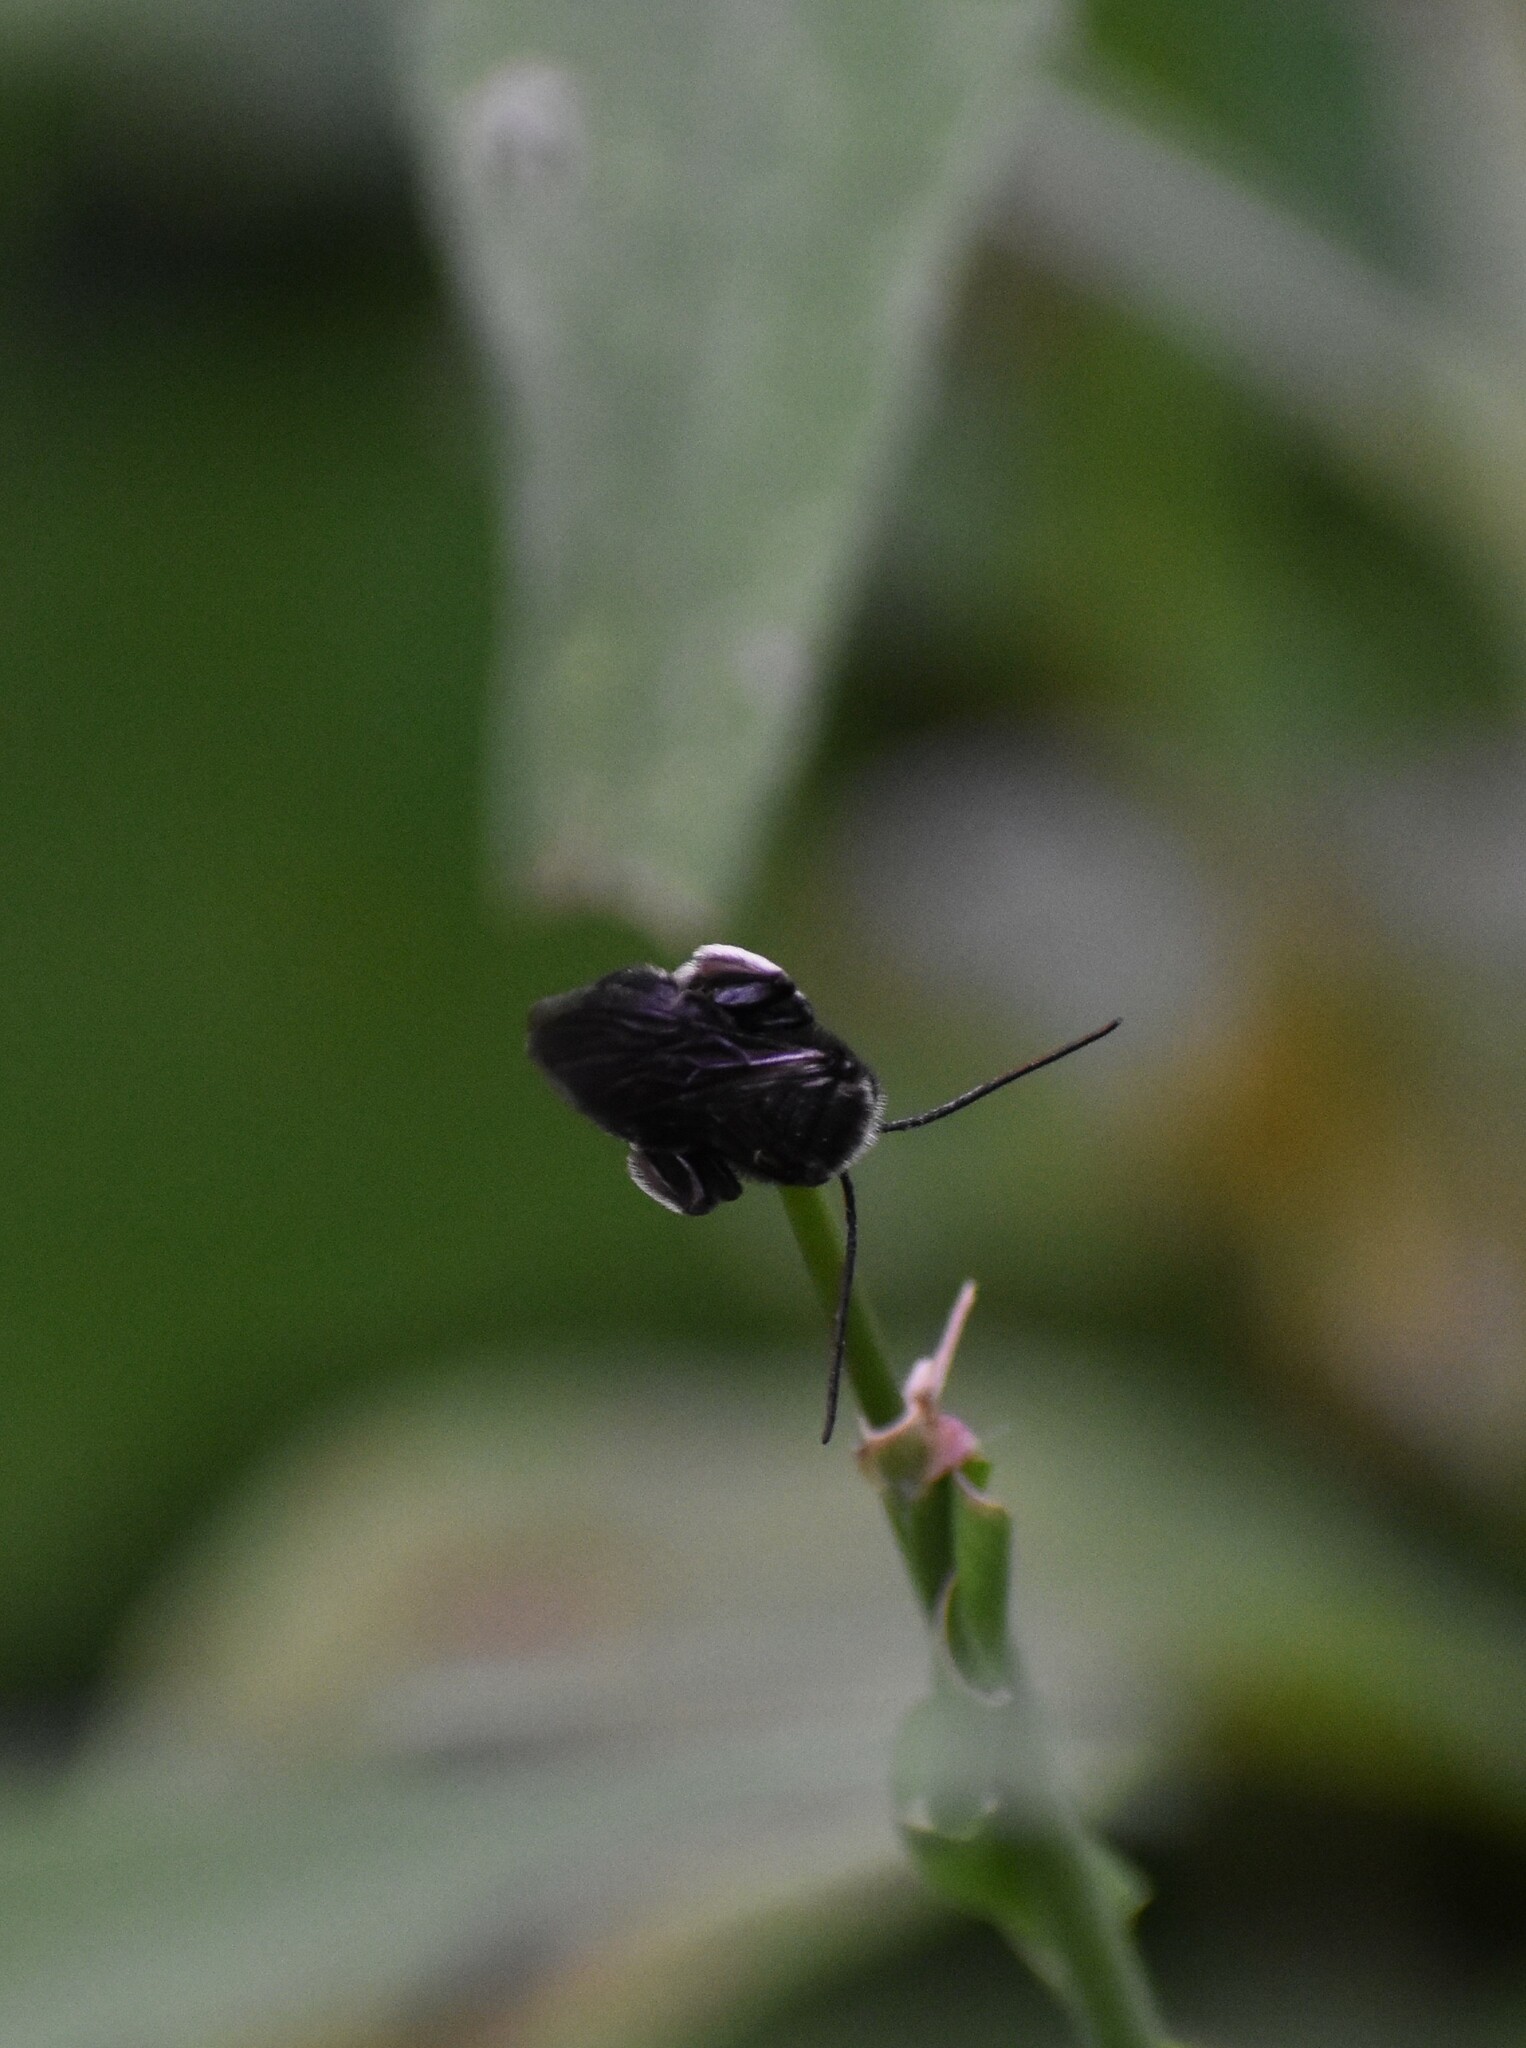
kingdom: Animalia
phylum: Arthropoda
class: Insecta
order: Hymenoptera
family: Apidae
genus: Melissodes
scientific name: Melissodes bimaculatus
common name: Two-spotted long-horned bee
